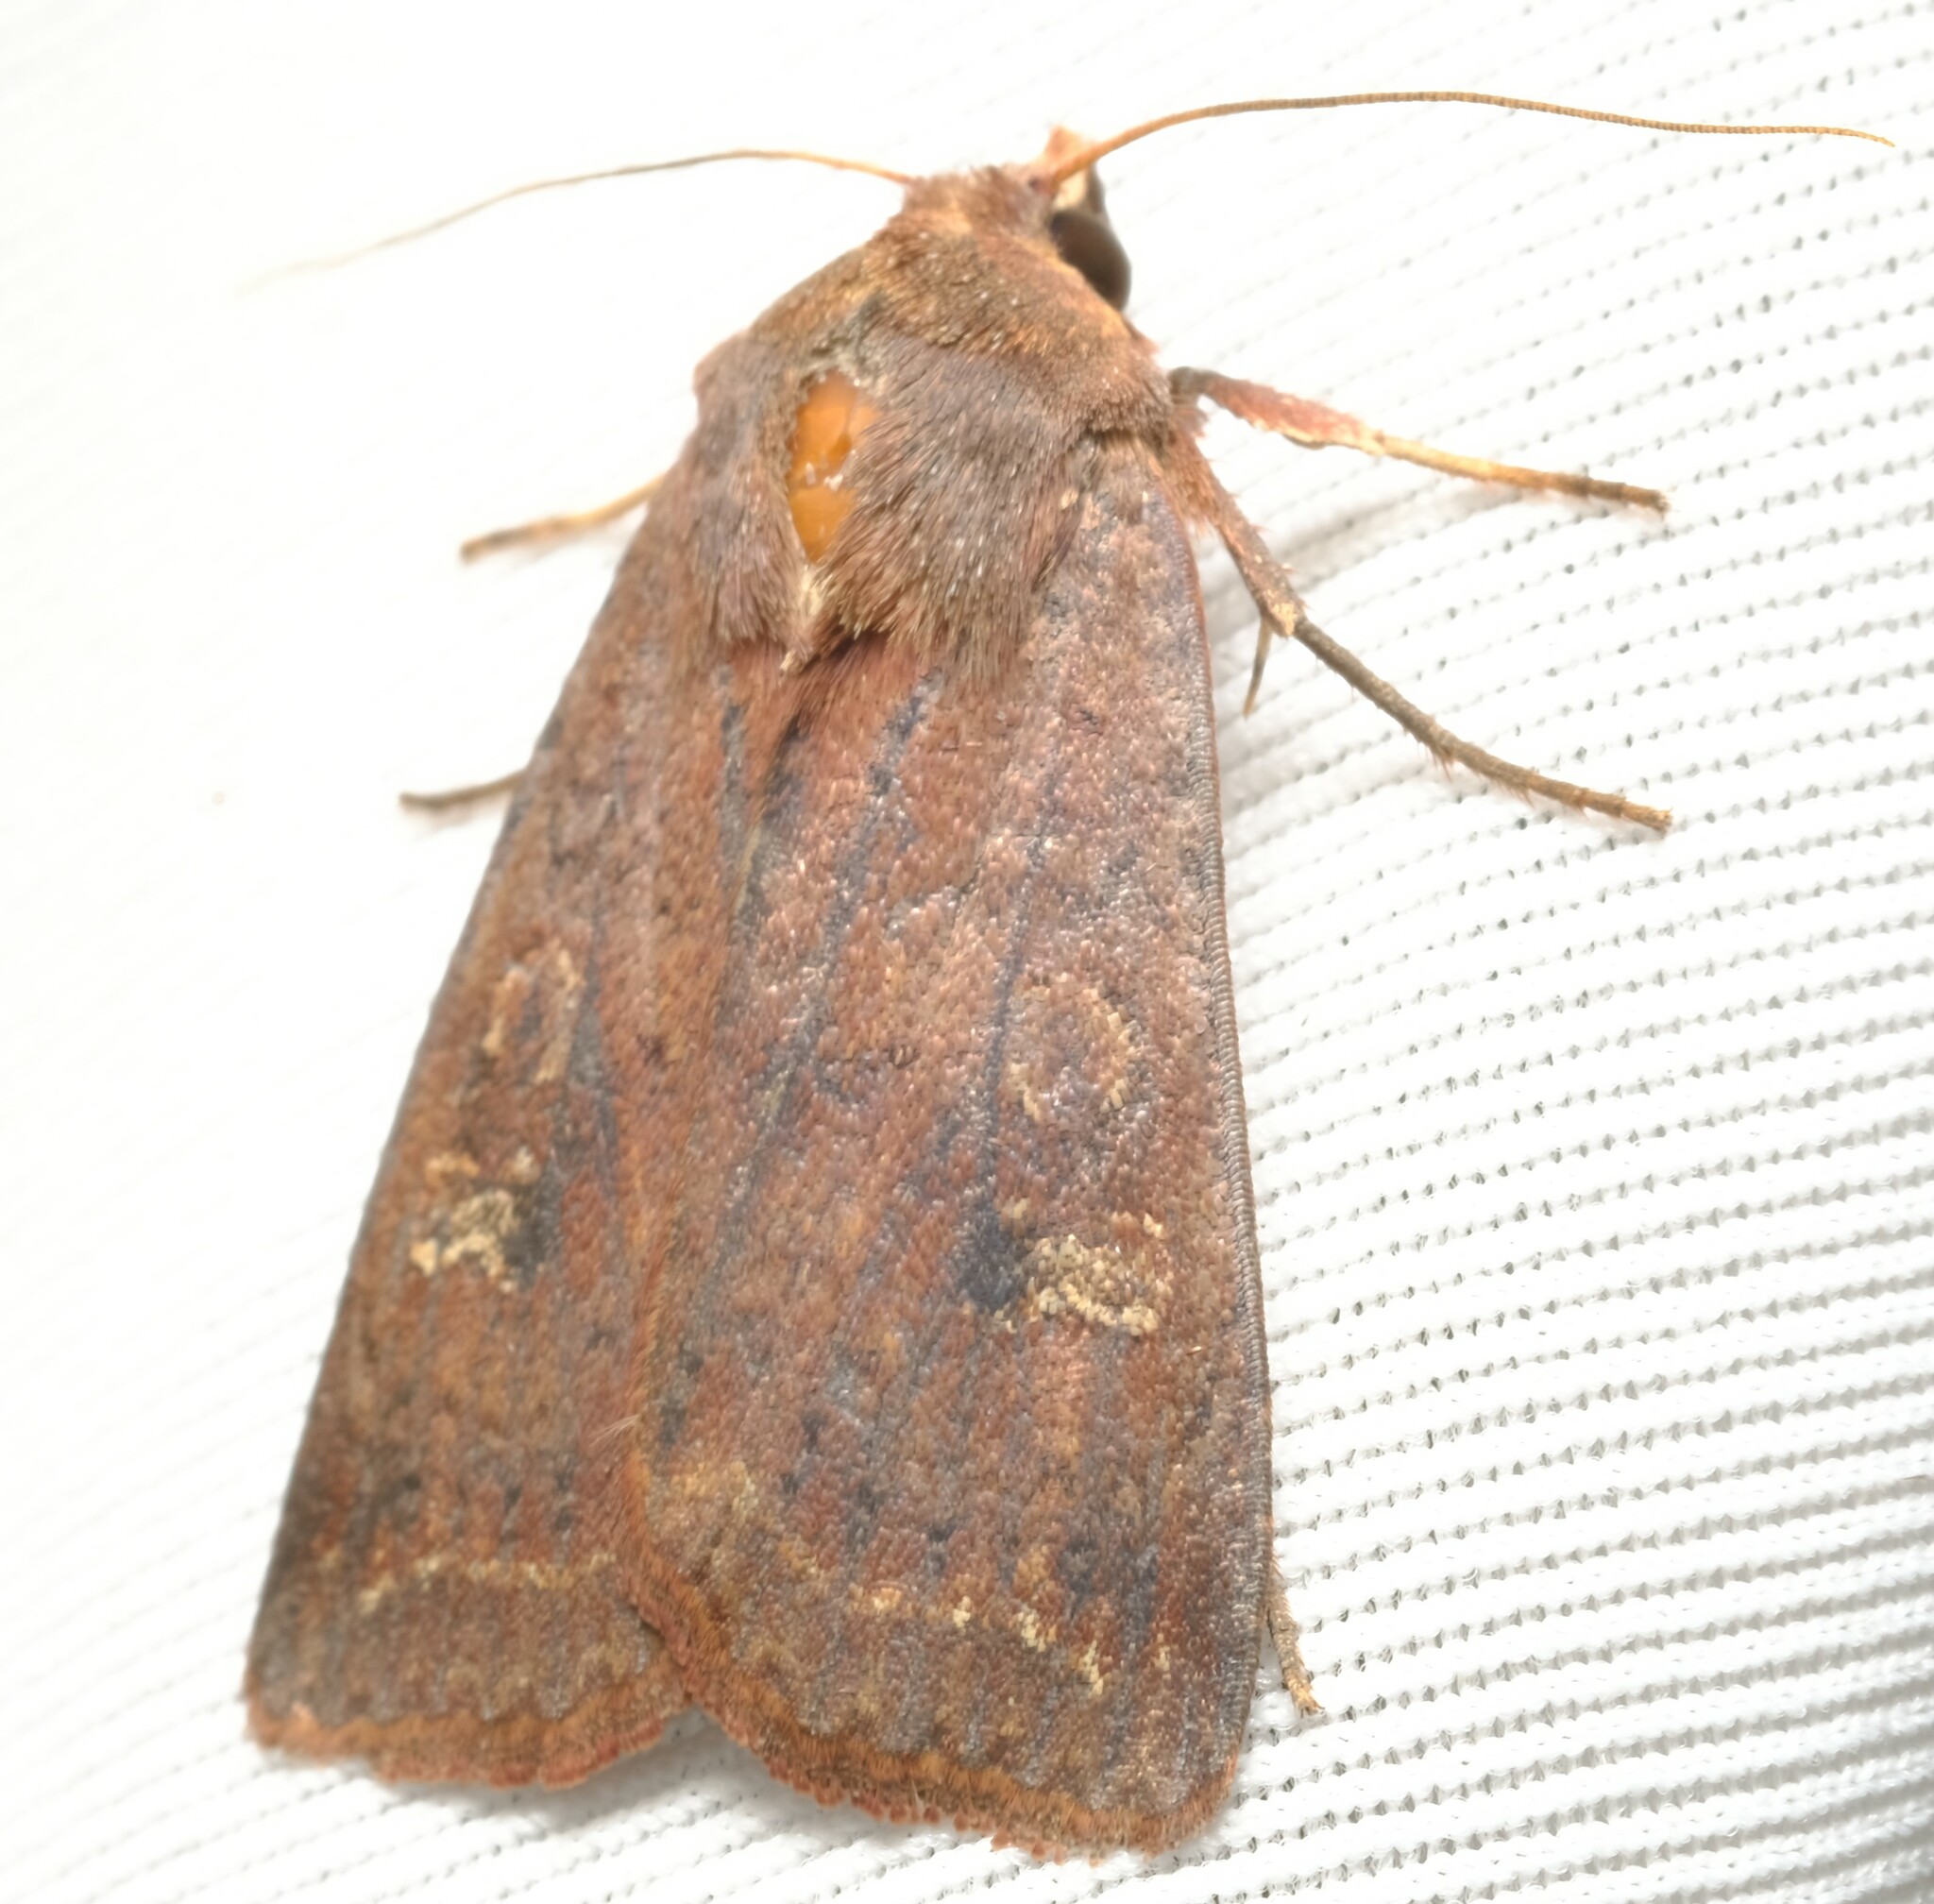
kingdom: Animalia
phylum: Arthropoda
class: Insecta
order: Lepidoptera
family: Noctuidae
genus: Diarsia
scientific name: Diarsia intermixta
